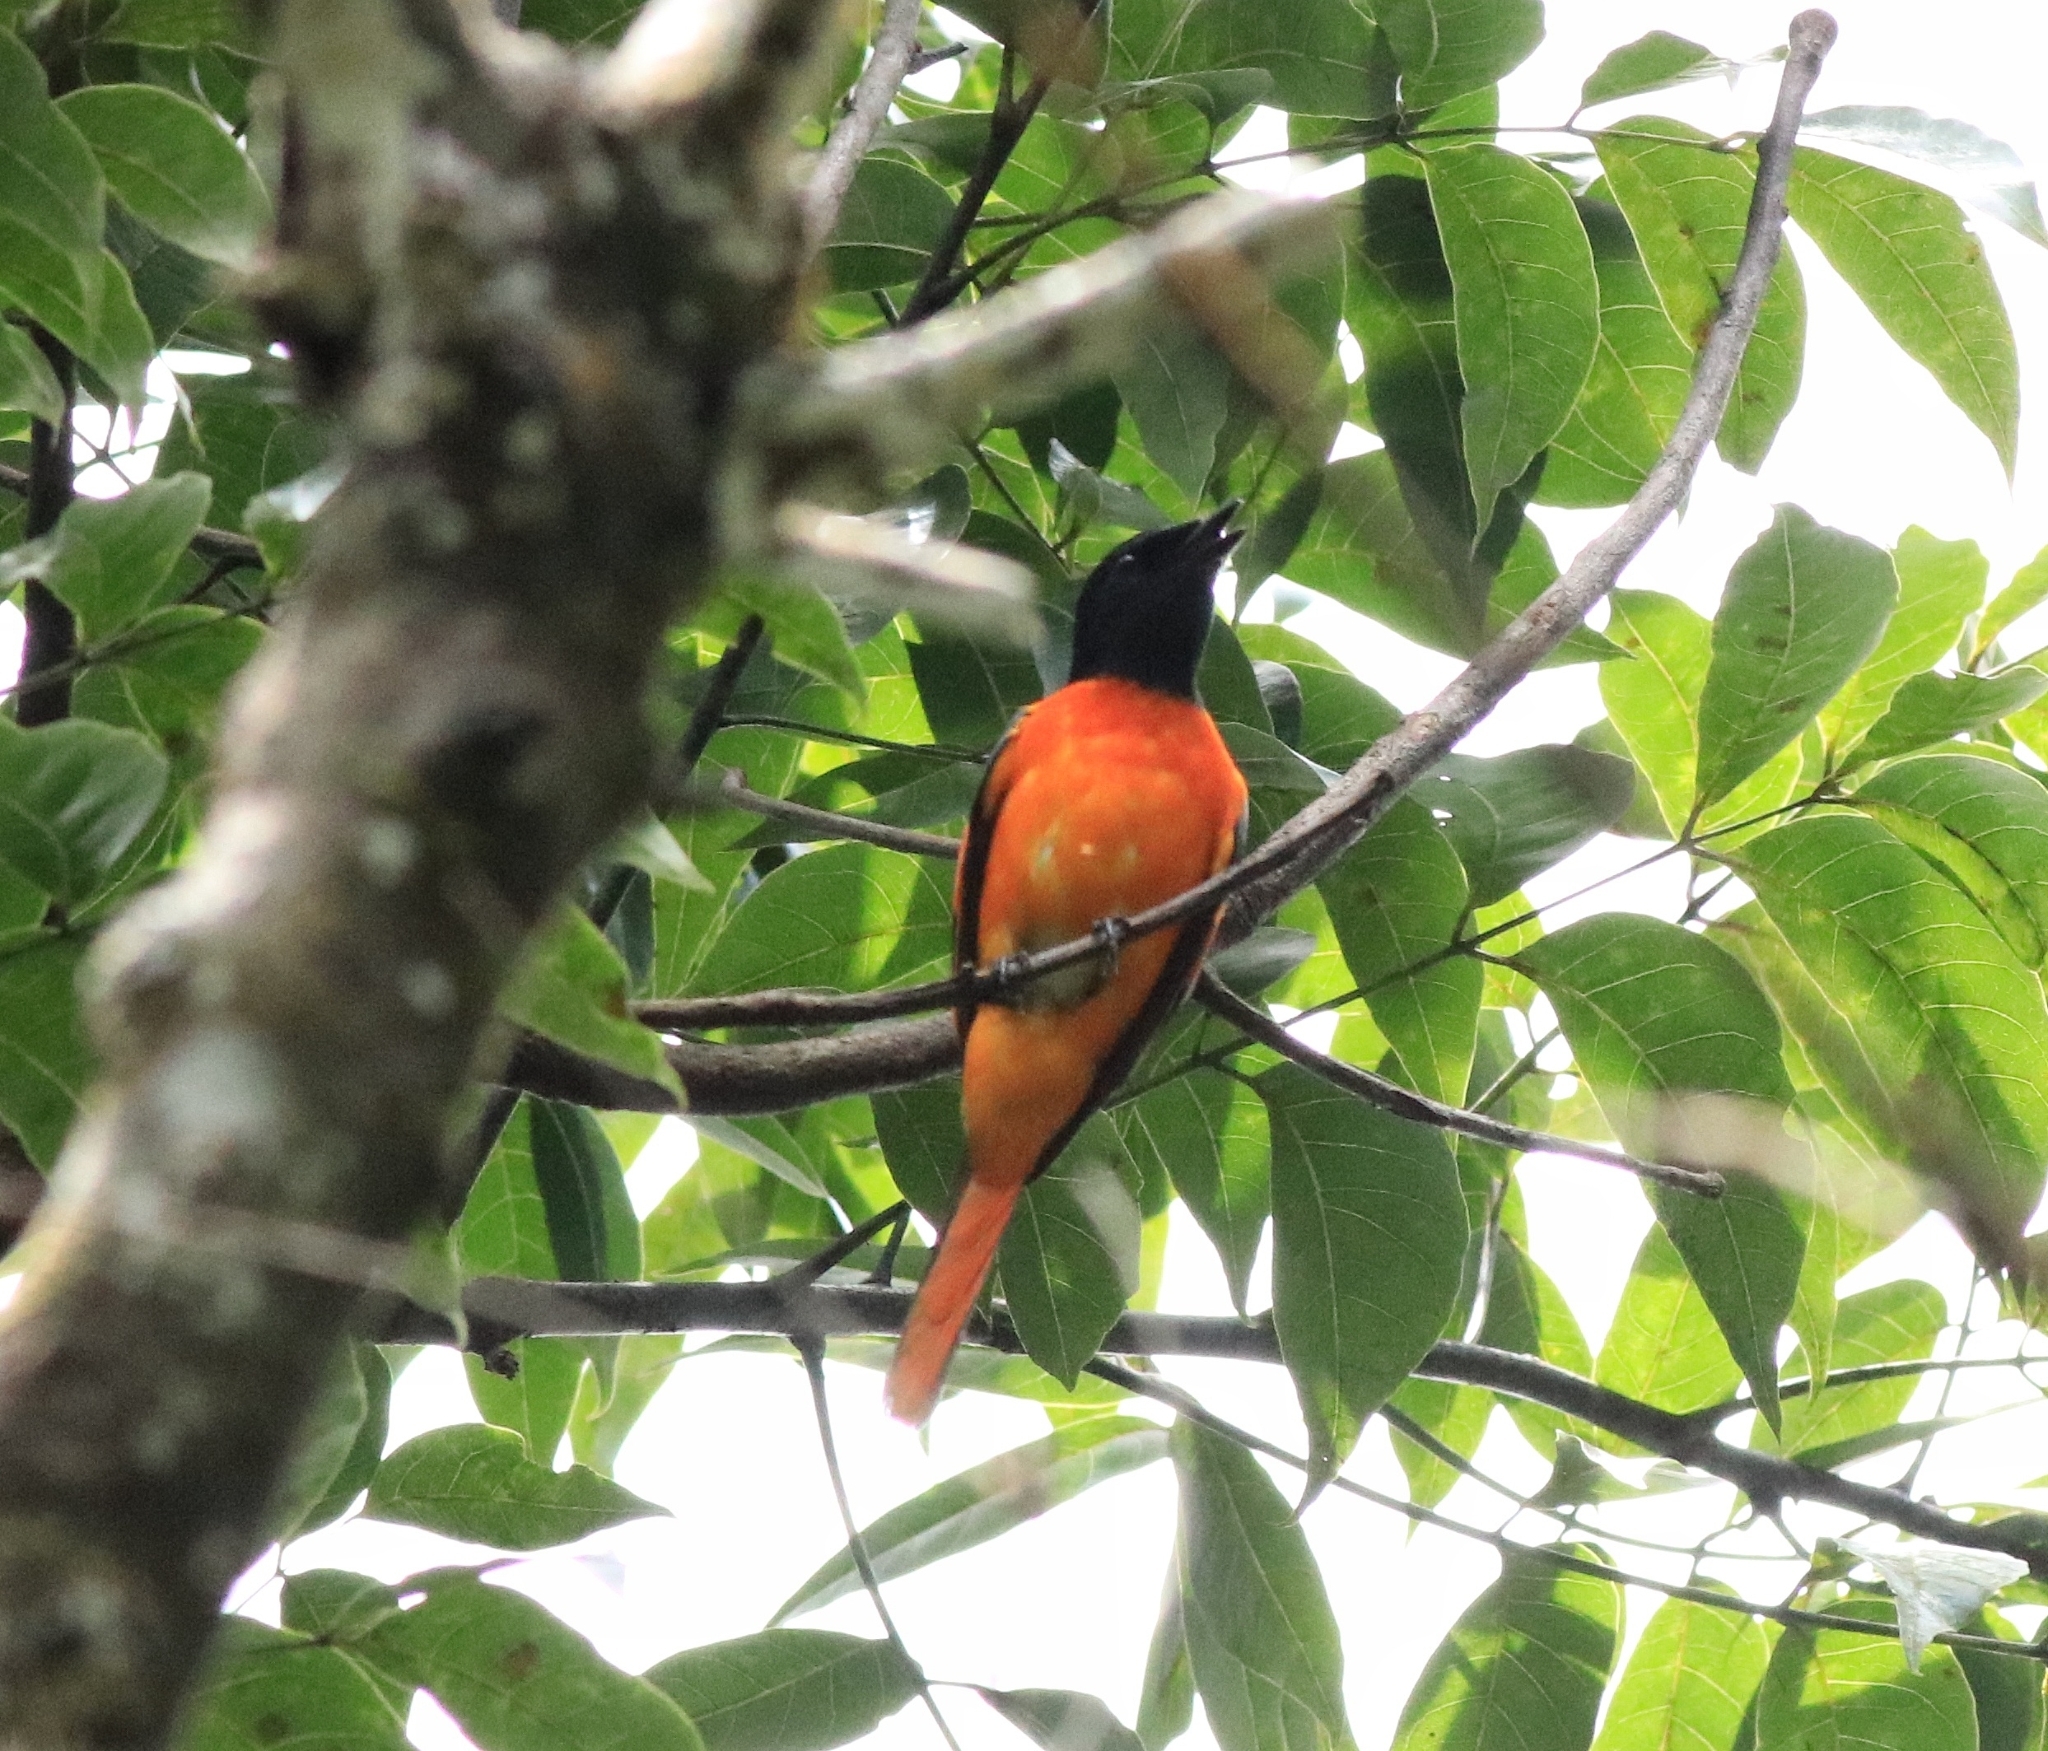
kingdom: Animalia
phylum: Chordata
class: Aves
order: Passeriformes
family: Campephagidae
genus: Pericrocotus
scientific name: Pericrocotus flammeus
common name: Orange minivet
